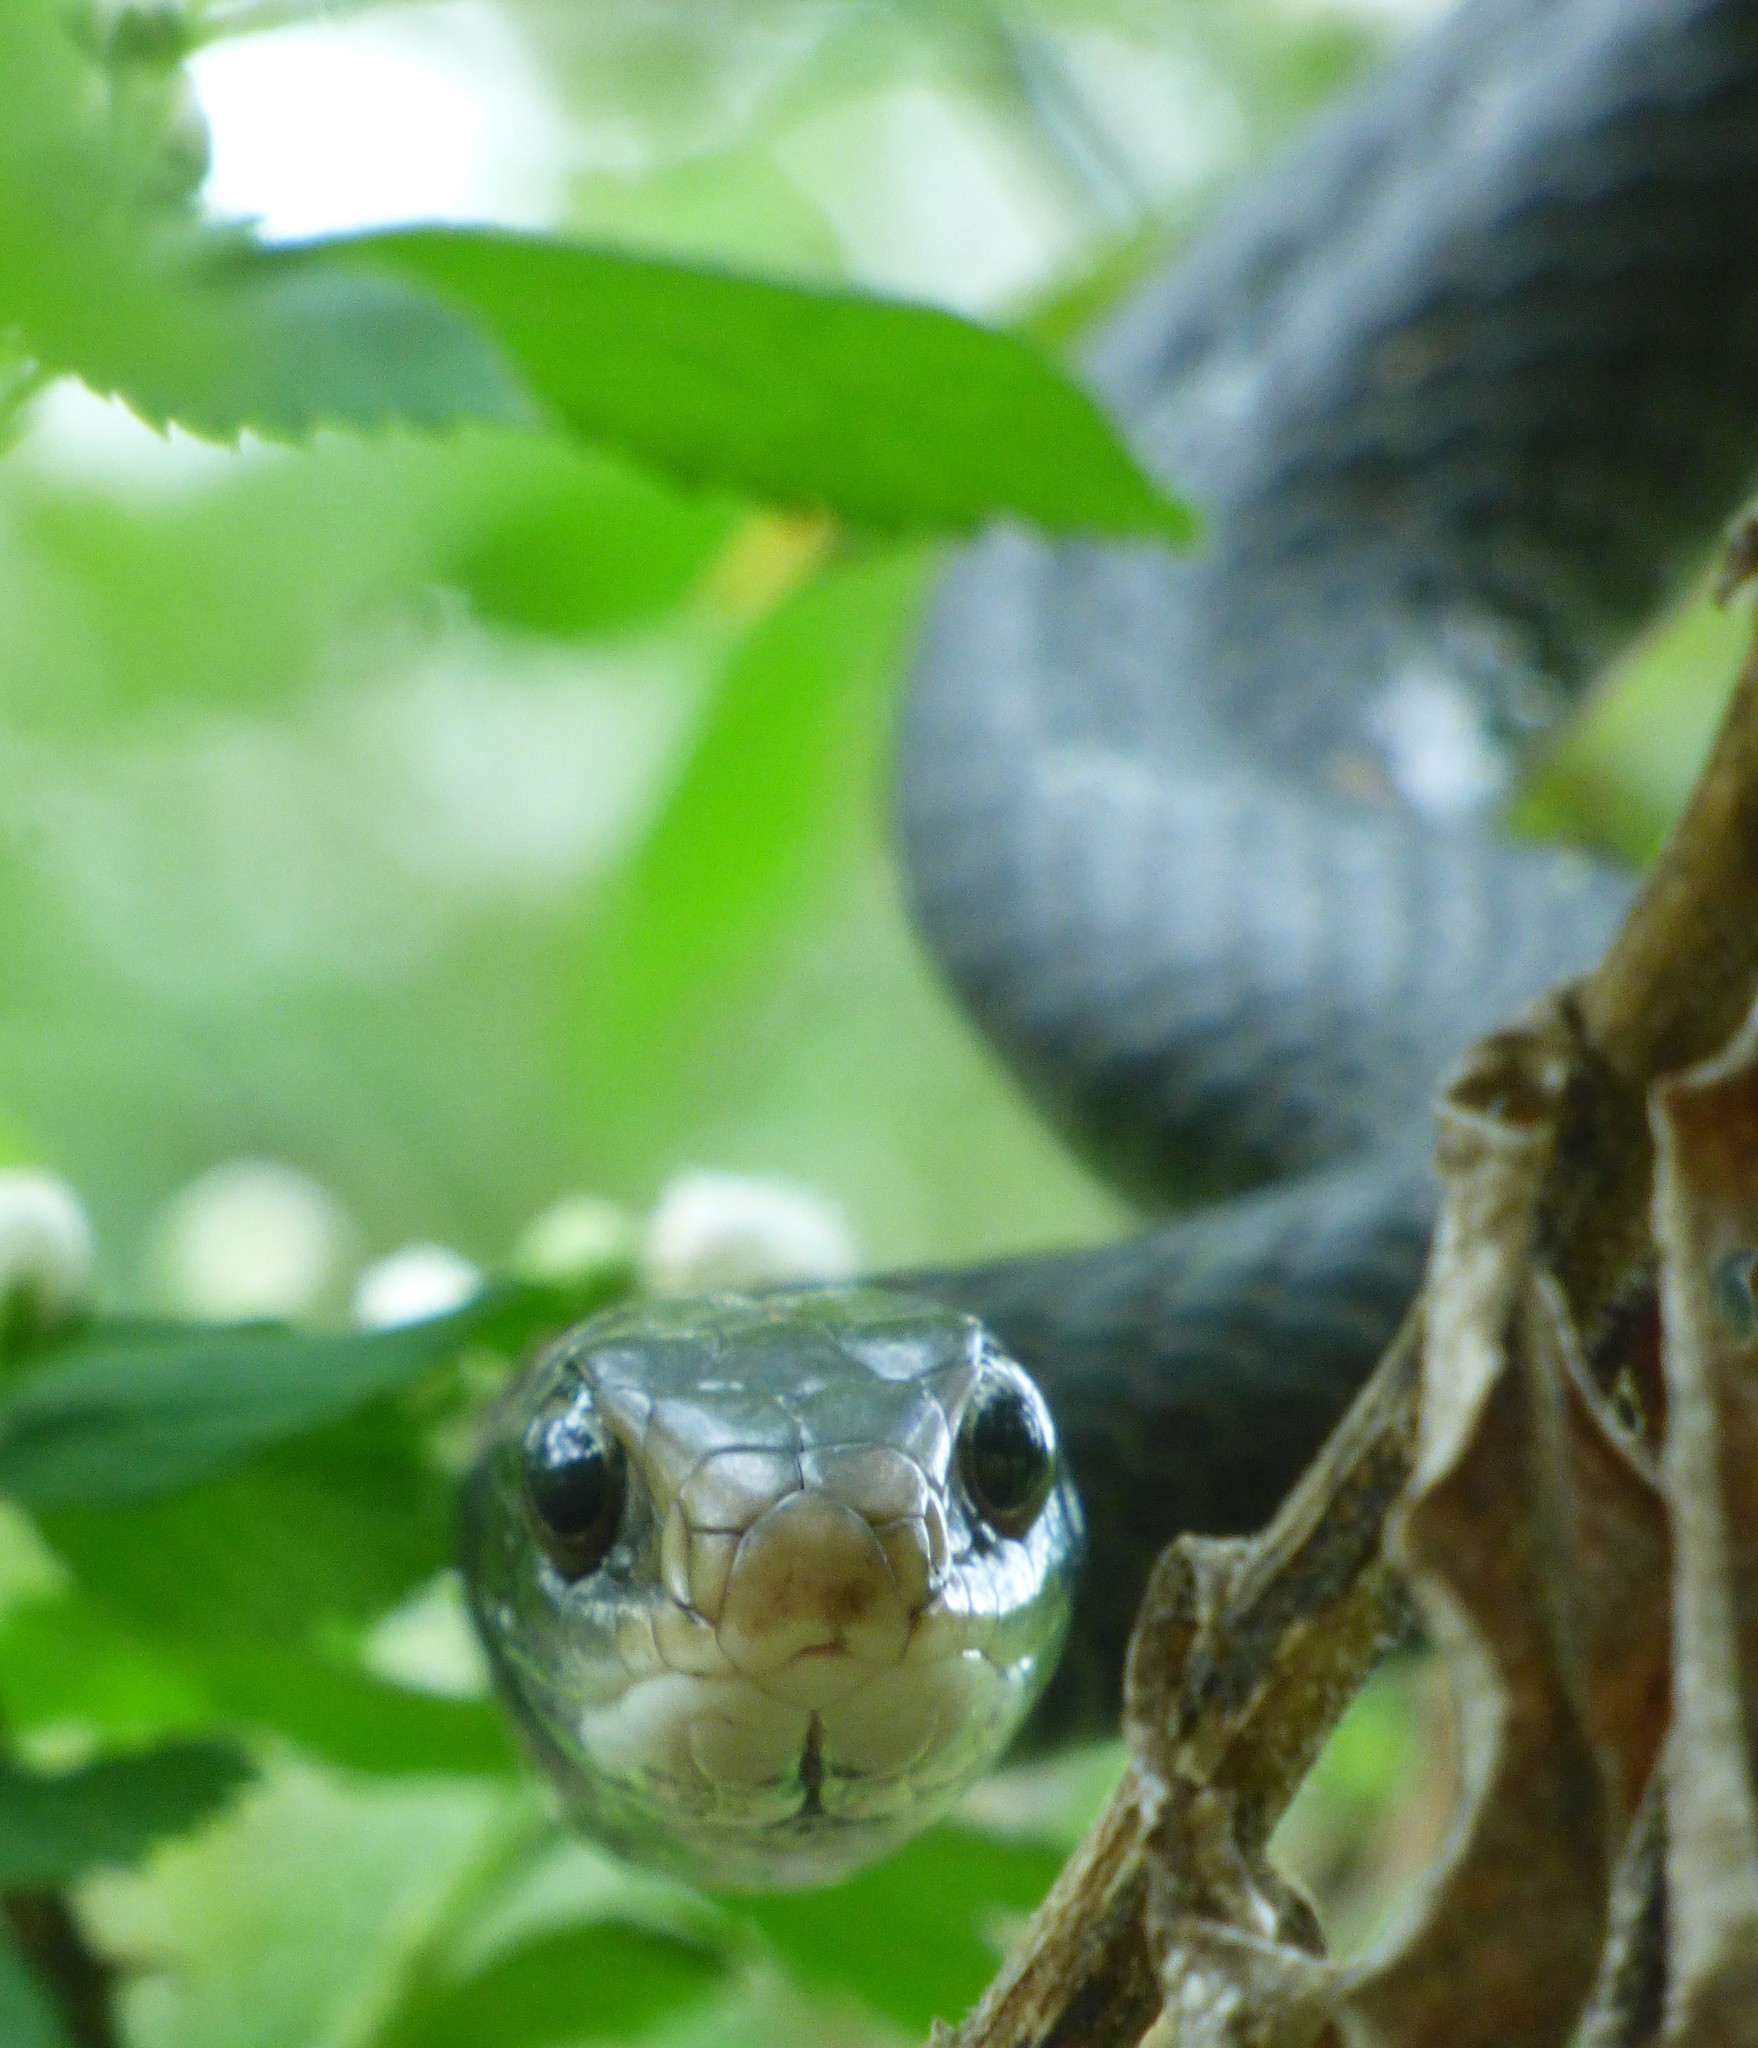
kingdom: Animalia
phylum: Chordata
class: Squamata
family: Colubridae
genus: Coluber
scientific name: Coluber constrictor
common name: Eastern racer
